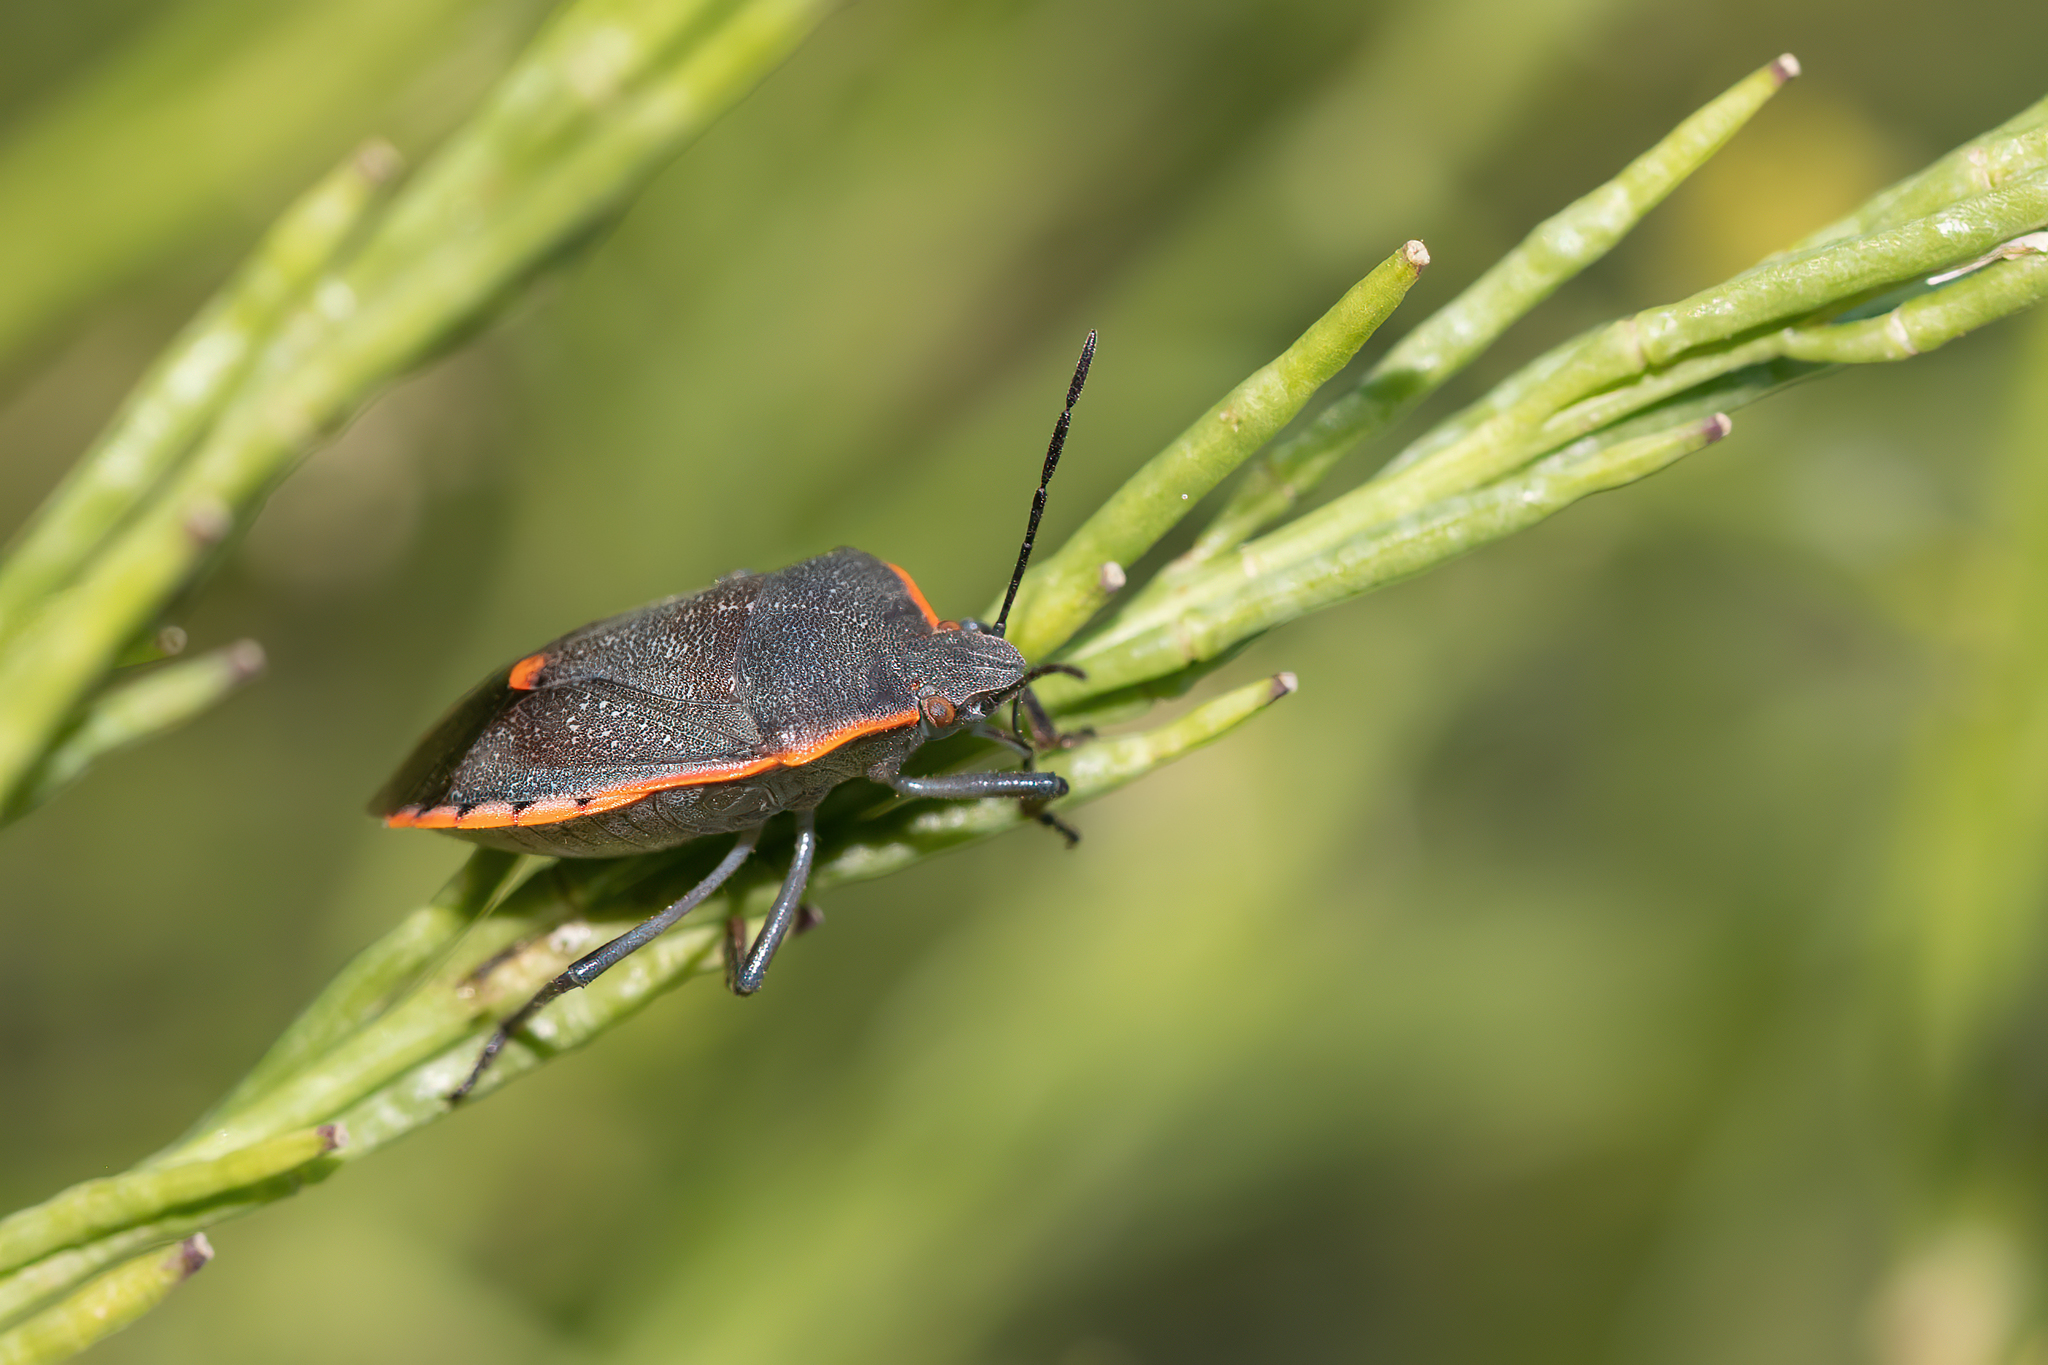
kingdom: Animalia
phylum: Arthropoda
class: Insecta
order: Hemiptera
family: Pentatomidae
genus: Chlorochroa
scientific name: Chlorochroa ligata
